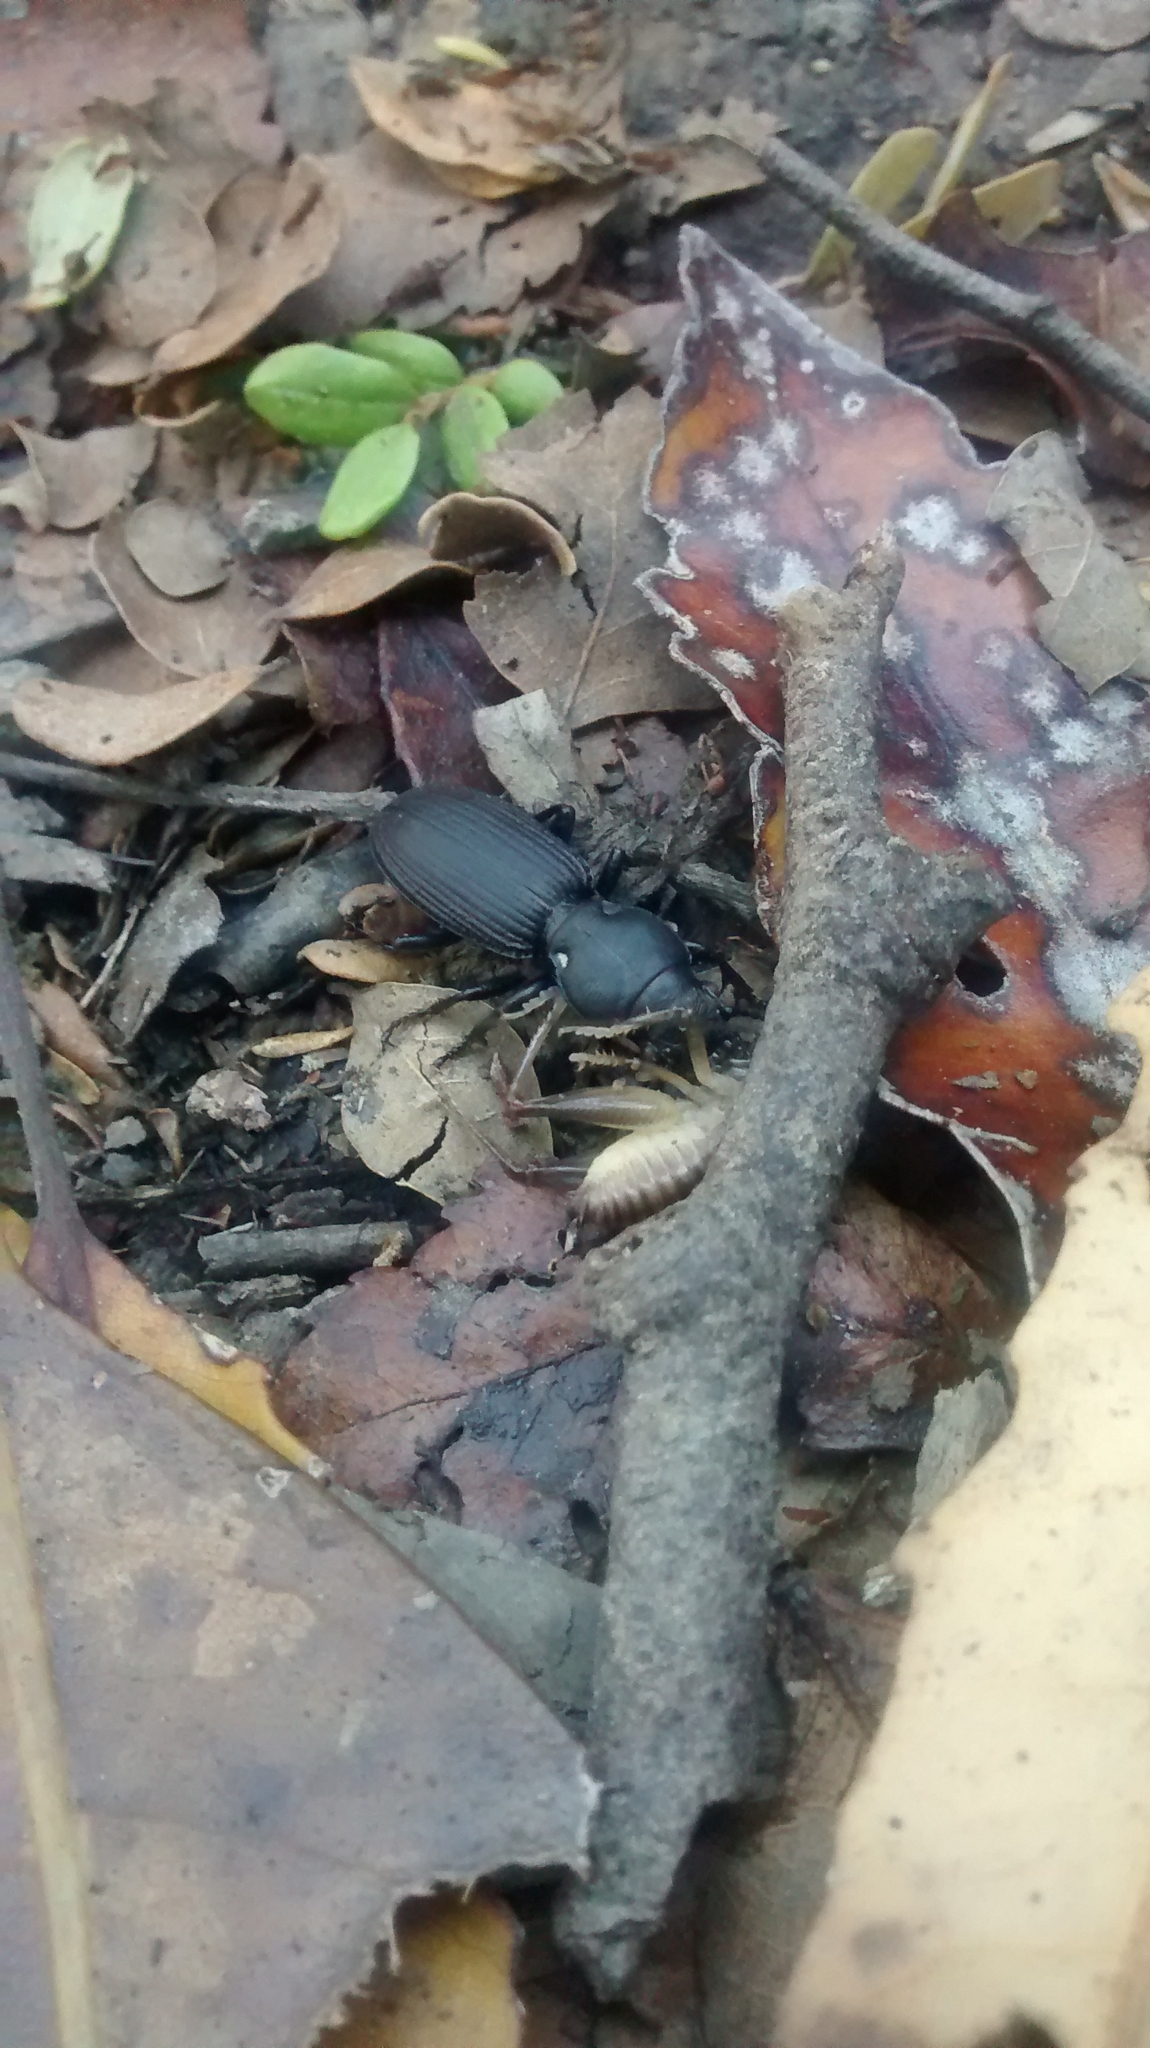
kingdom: Animalia
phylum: Arthropoda
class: Insecta
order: Coleoptera
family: Carabidae
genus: Mecodema
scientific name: Mecodema simplex
